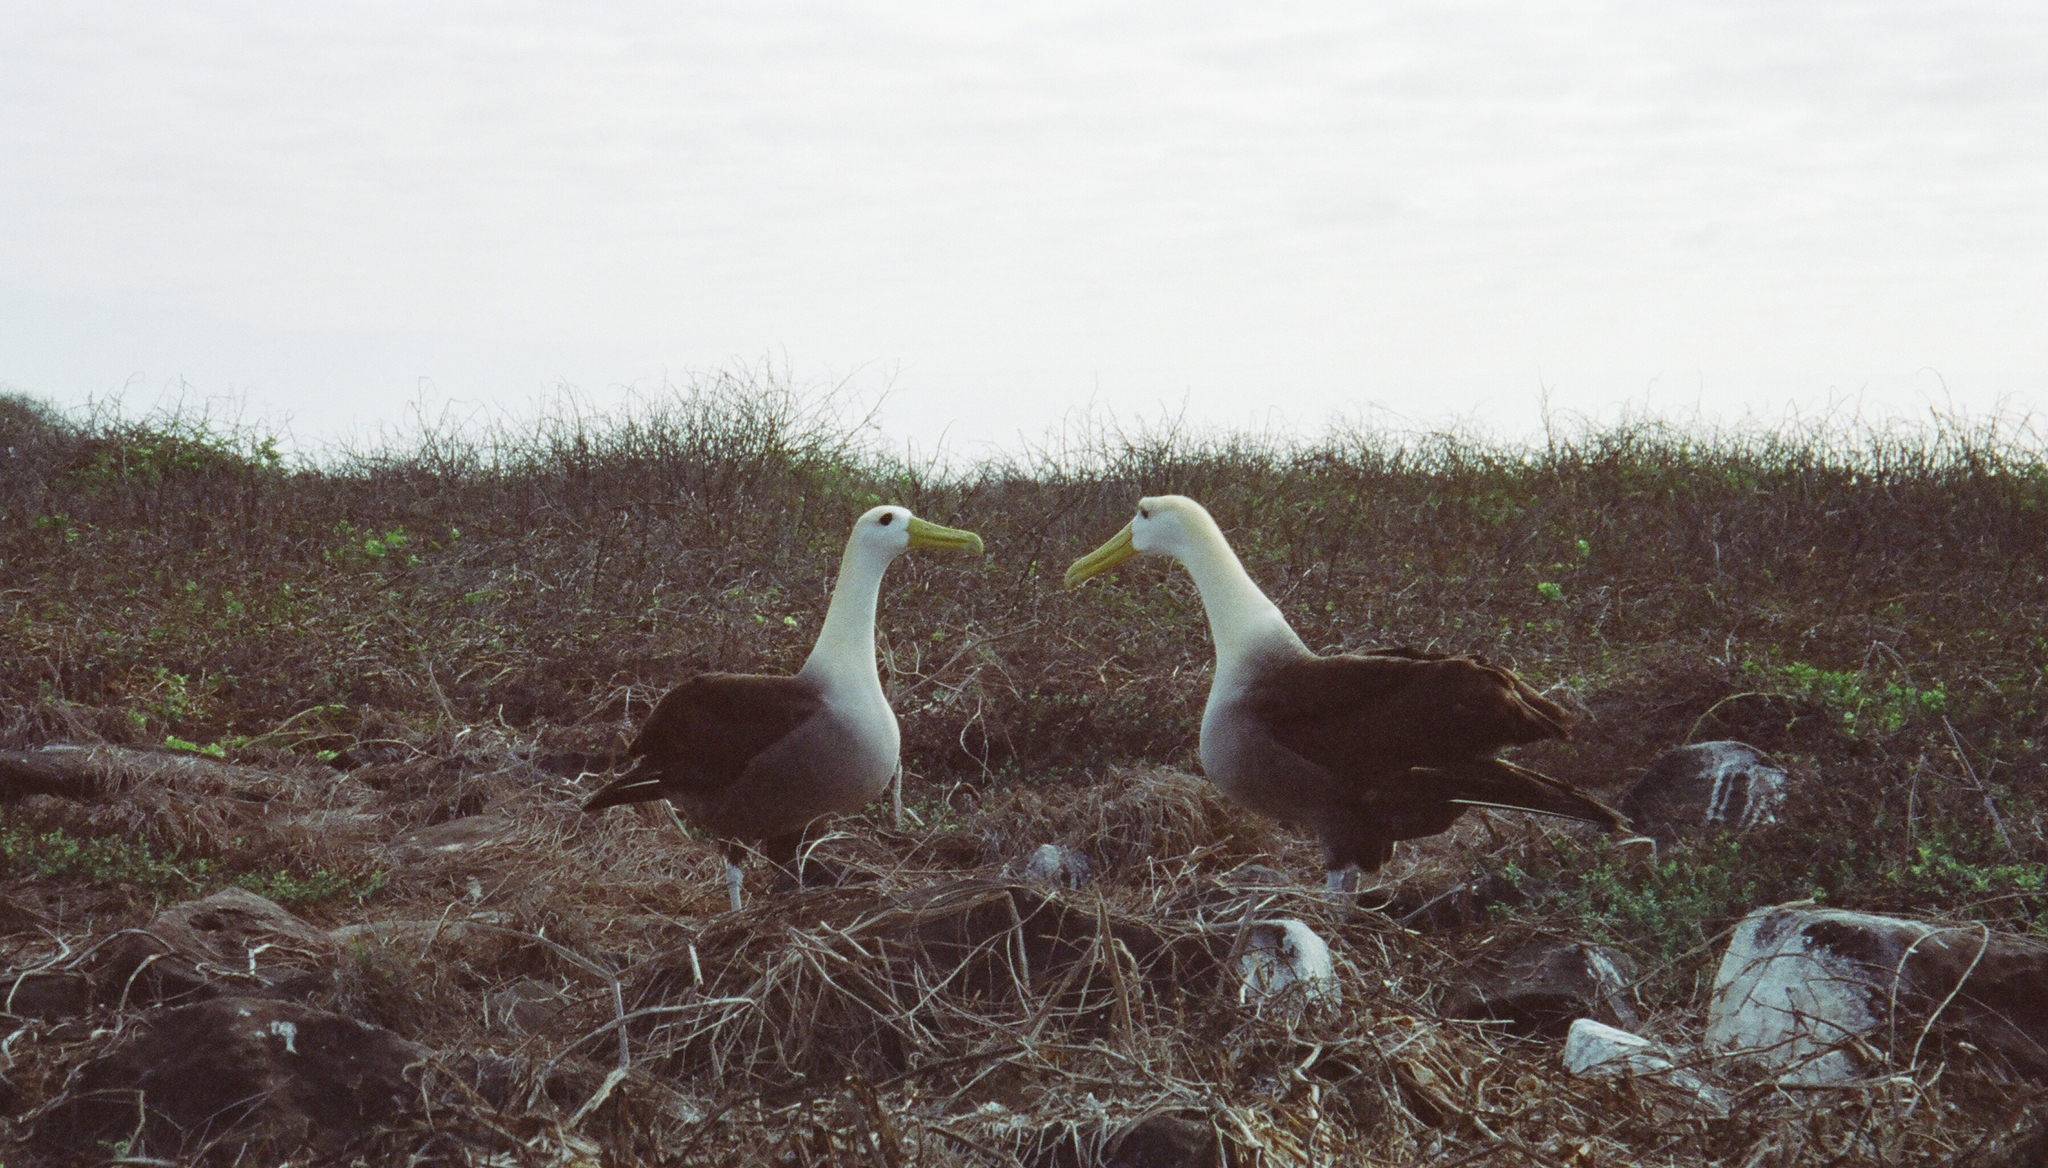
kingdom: Animalia
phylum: Chordata
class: Aves
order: Procellariiformes
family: Diomedeidae
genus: Phoebastria
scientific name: Phoebastria irrorata
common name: Waved albatross
